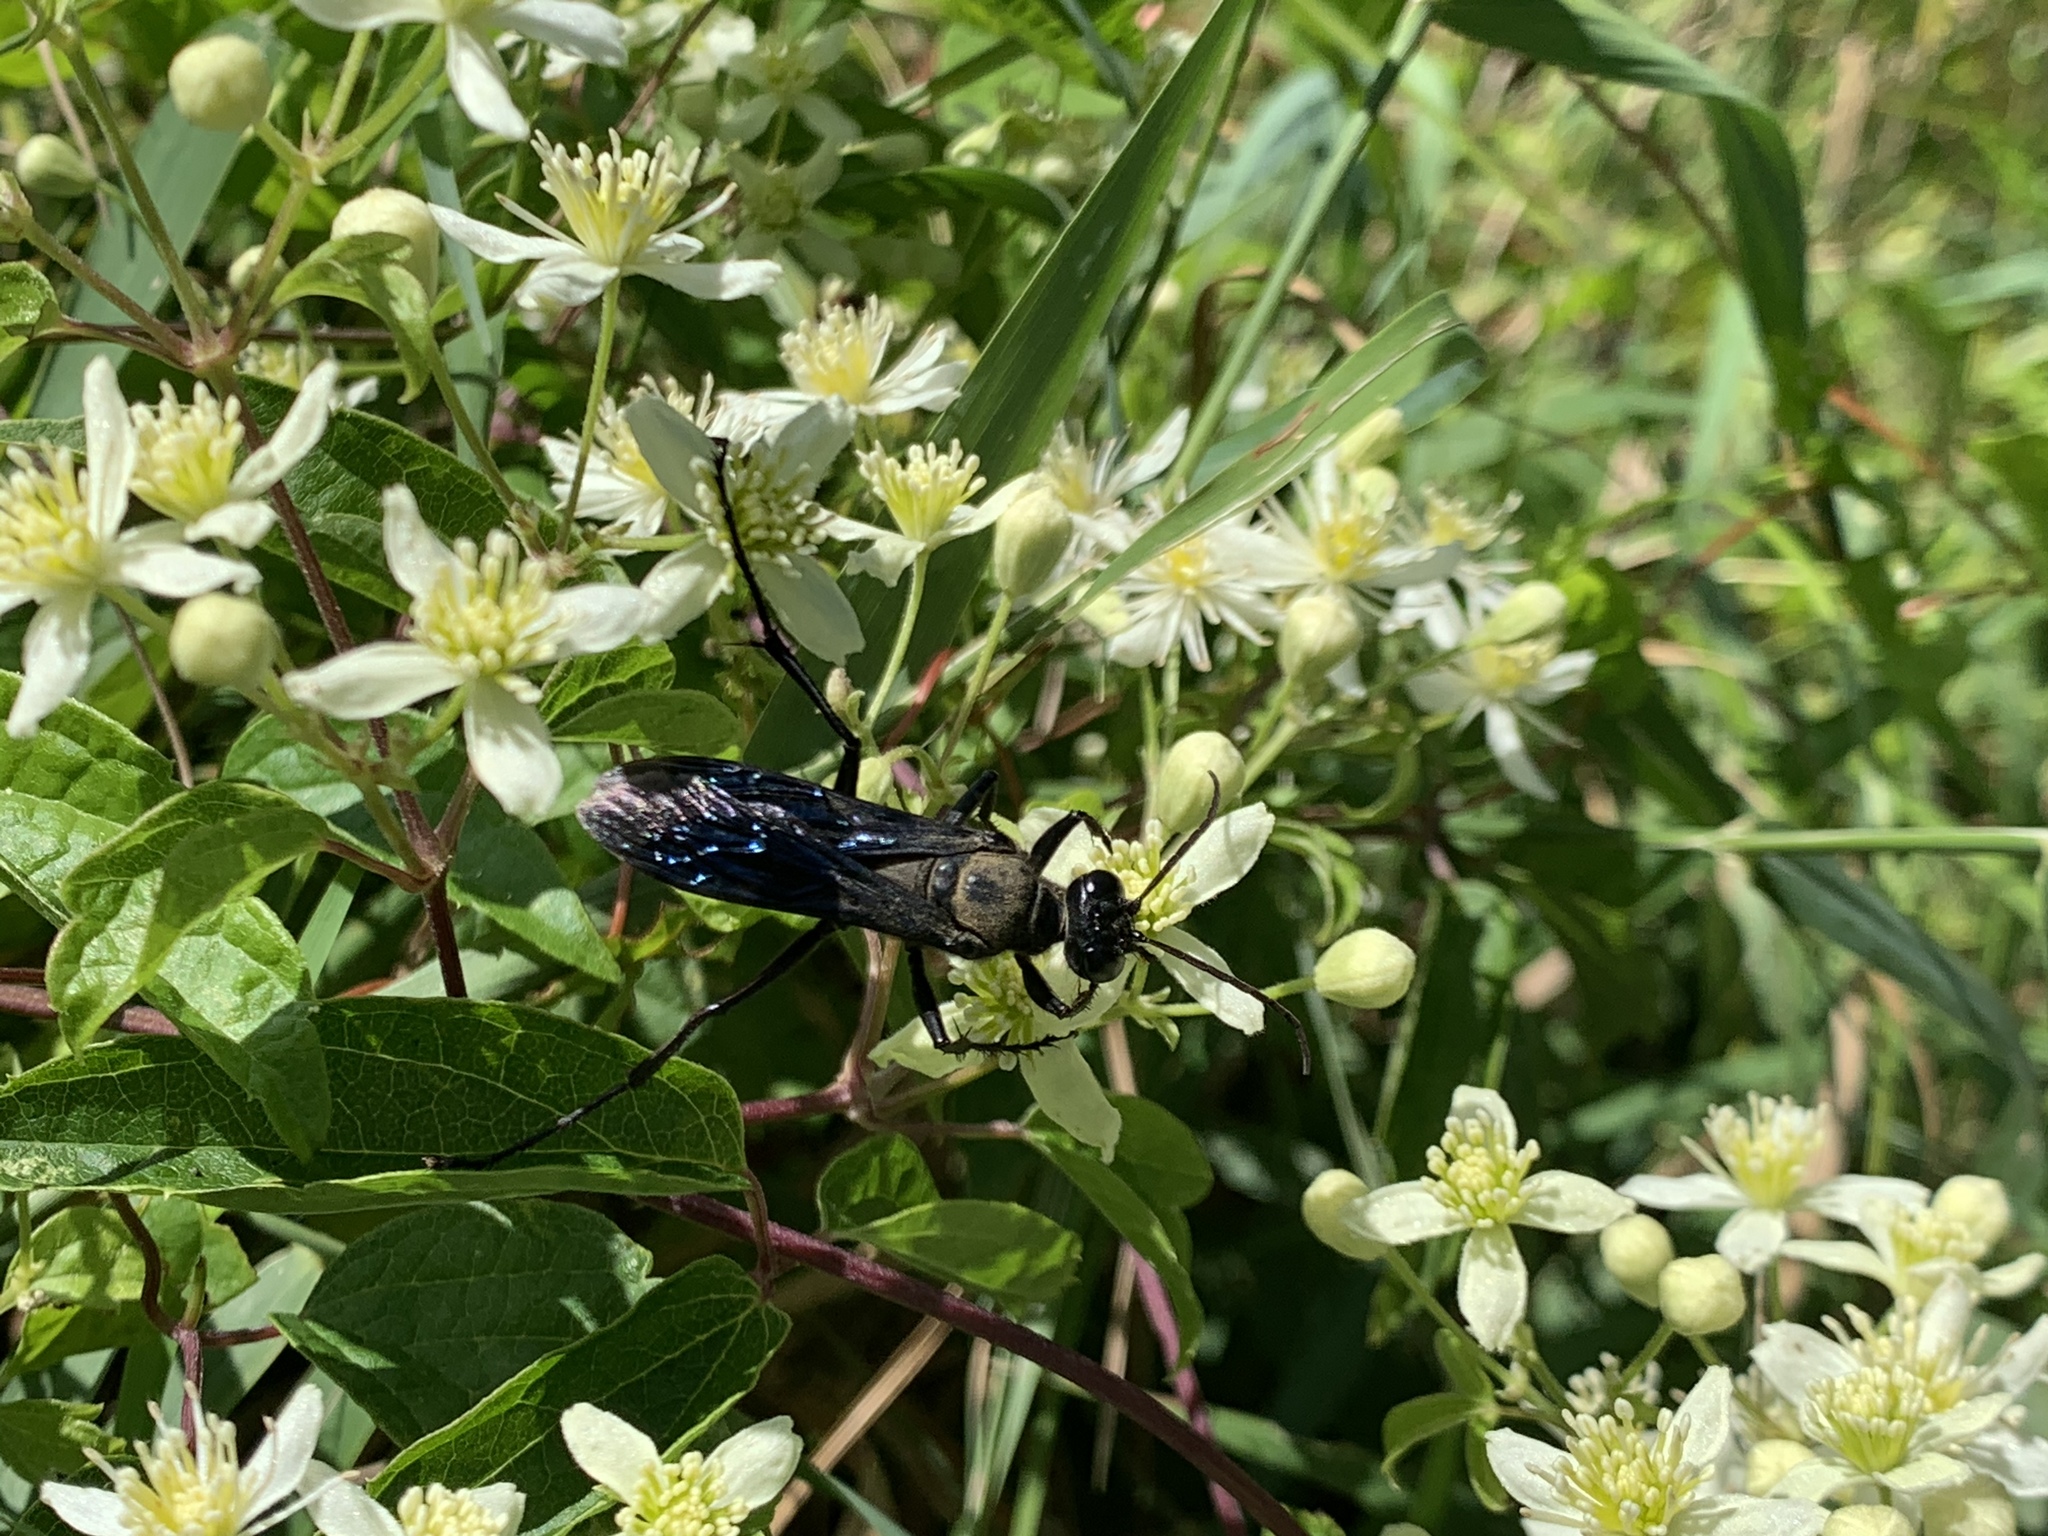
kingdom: Animalia
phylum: Arthropoda
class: Insecta
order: Hymenoptera
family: Sphecidae
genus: Sphex
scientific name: Sphex pensylvanicus
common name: Great black digger wasp
